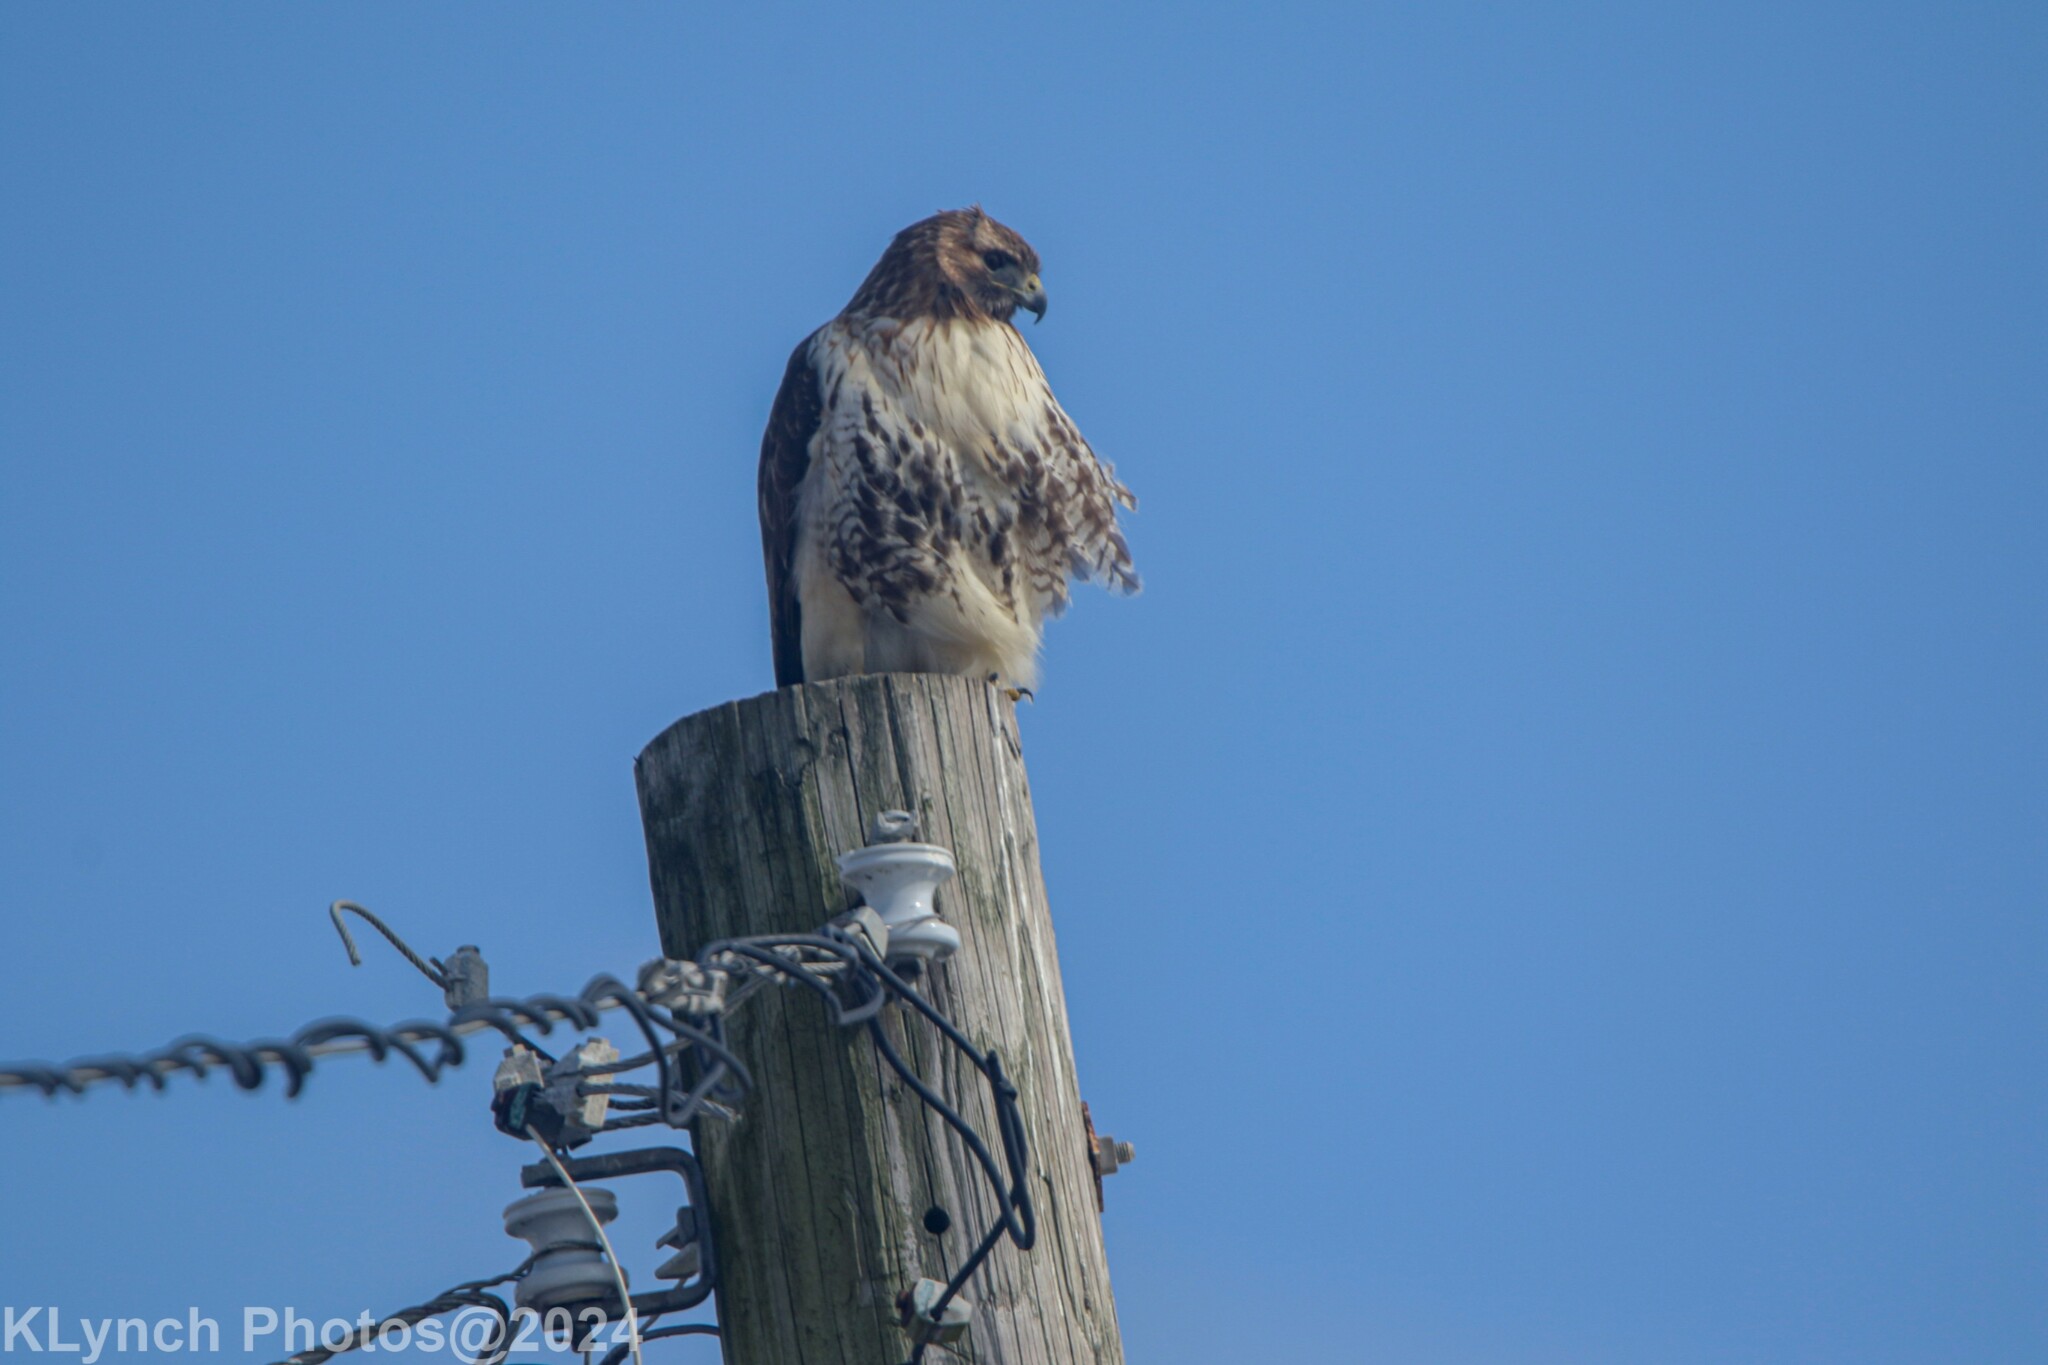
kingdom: Animalia
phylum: Chordata
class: Aves
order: Accipitriformes
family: Accipitridae
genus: Buteo
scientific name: Buteo jamaicensis
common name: Red-tailed hawk
